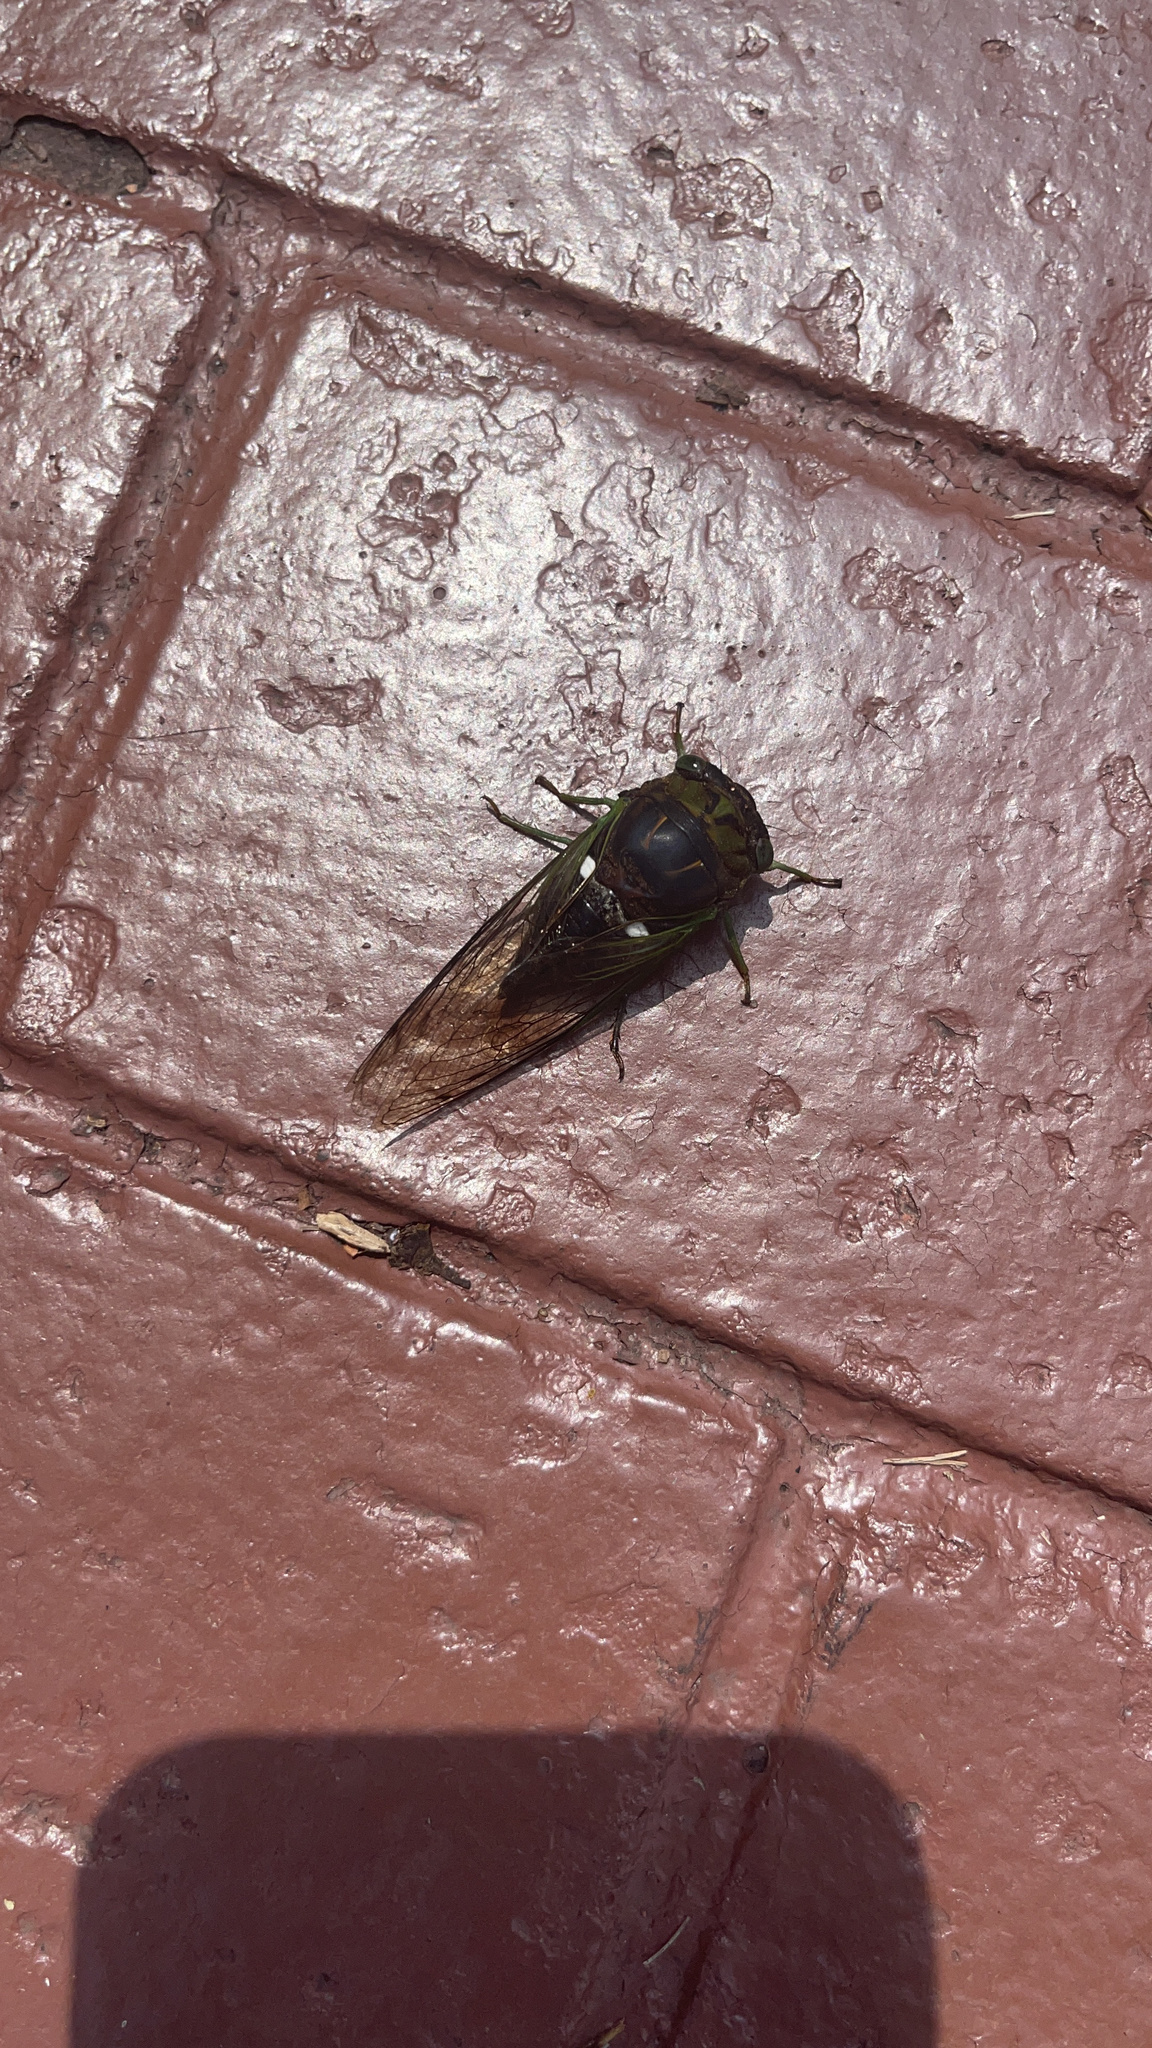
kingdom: Animalia
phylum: Arthropoda
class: Insecta
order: Hemiptera
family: Cicadidae
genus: Neotibicen
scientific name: Neotibicen tibicen
